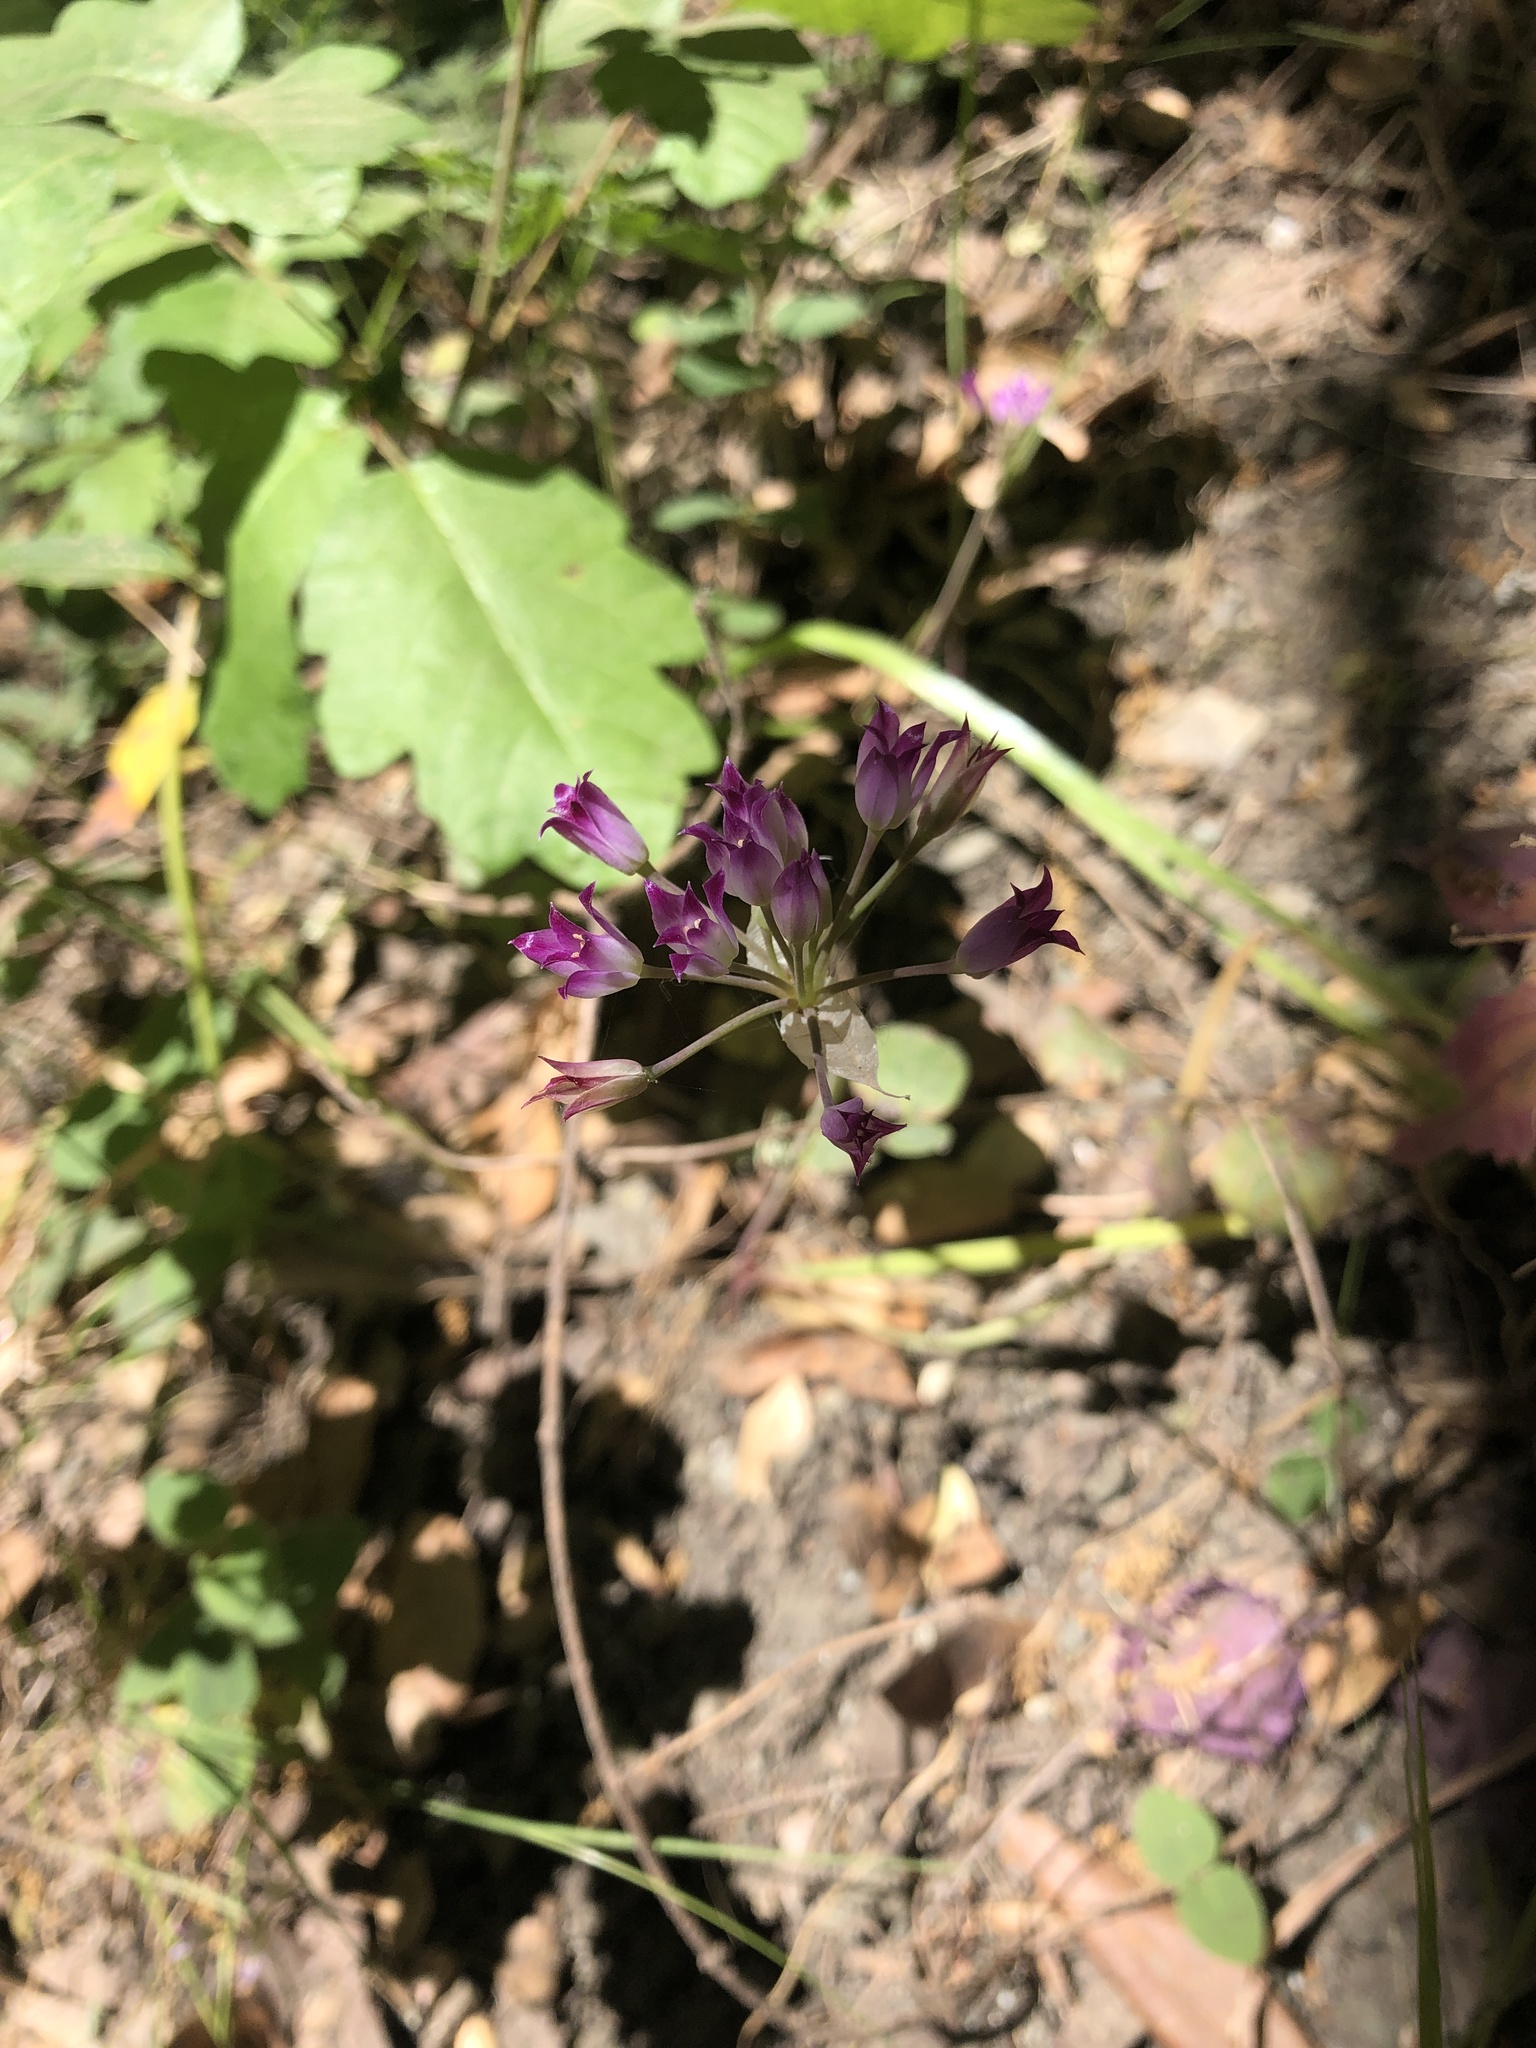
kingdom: Plantae
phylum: Tracheophyta
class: Liliopsida
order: Asparagales
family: Amaryllidaceae
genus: Allium
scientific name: Allium peninsulare
